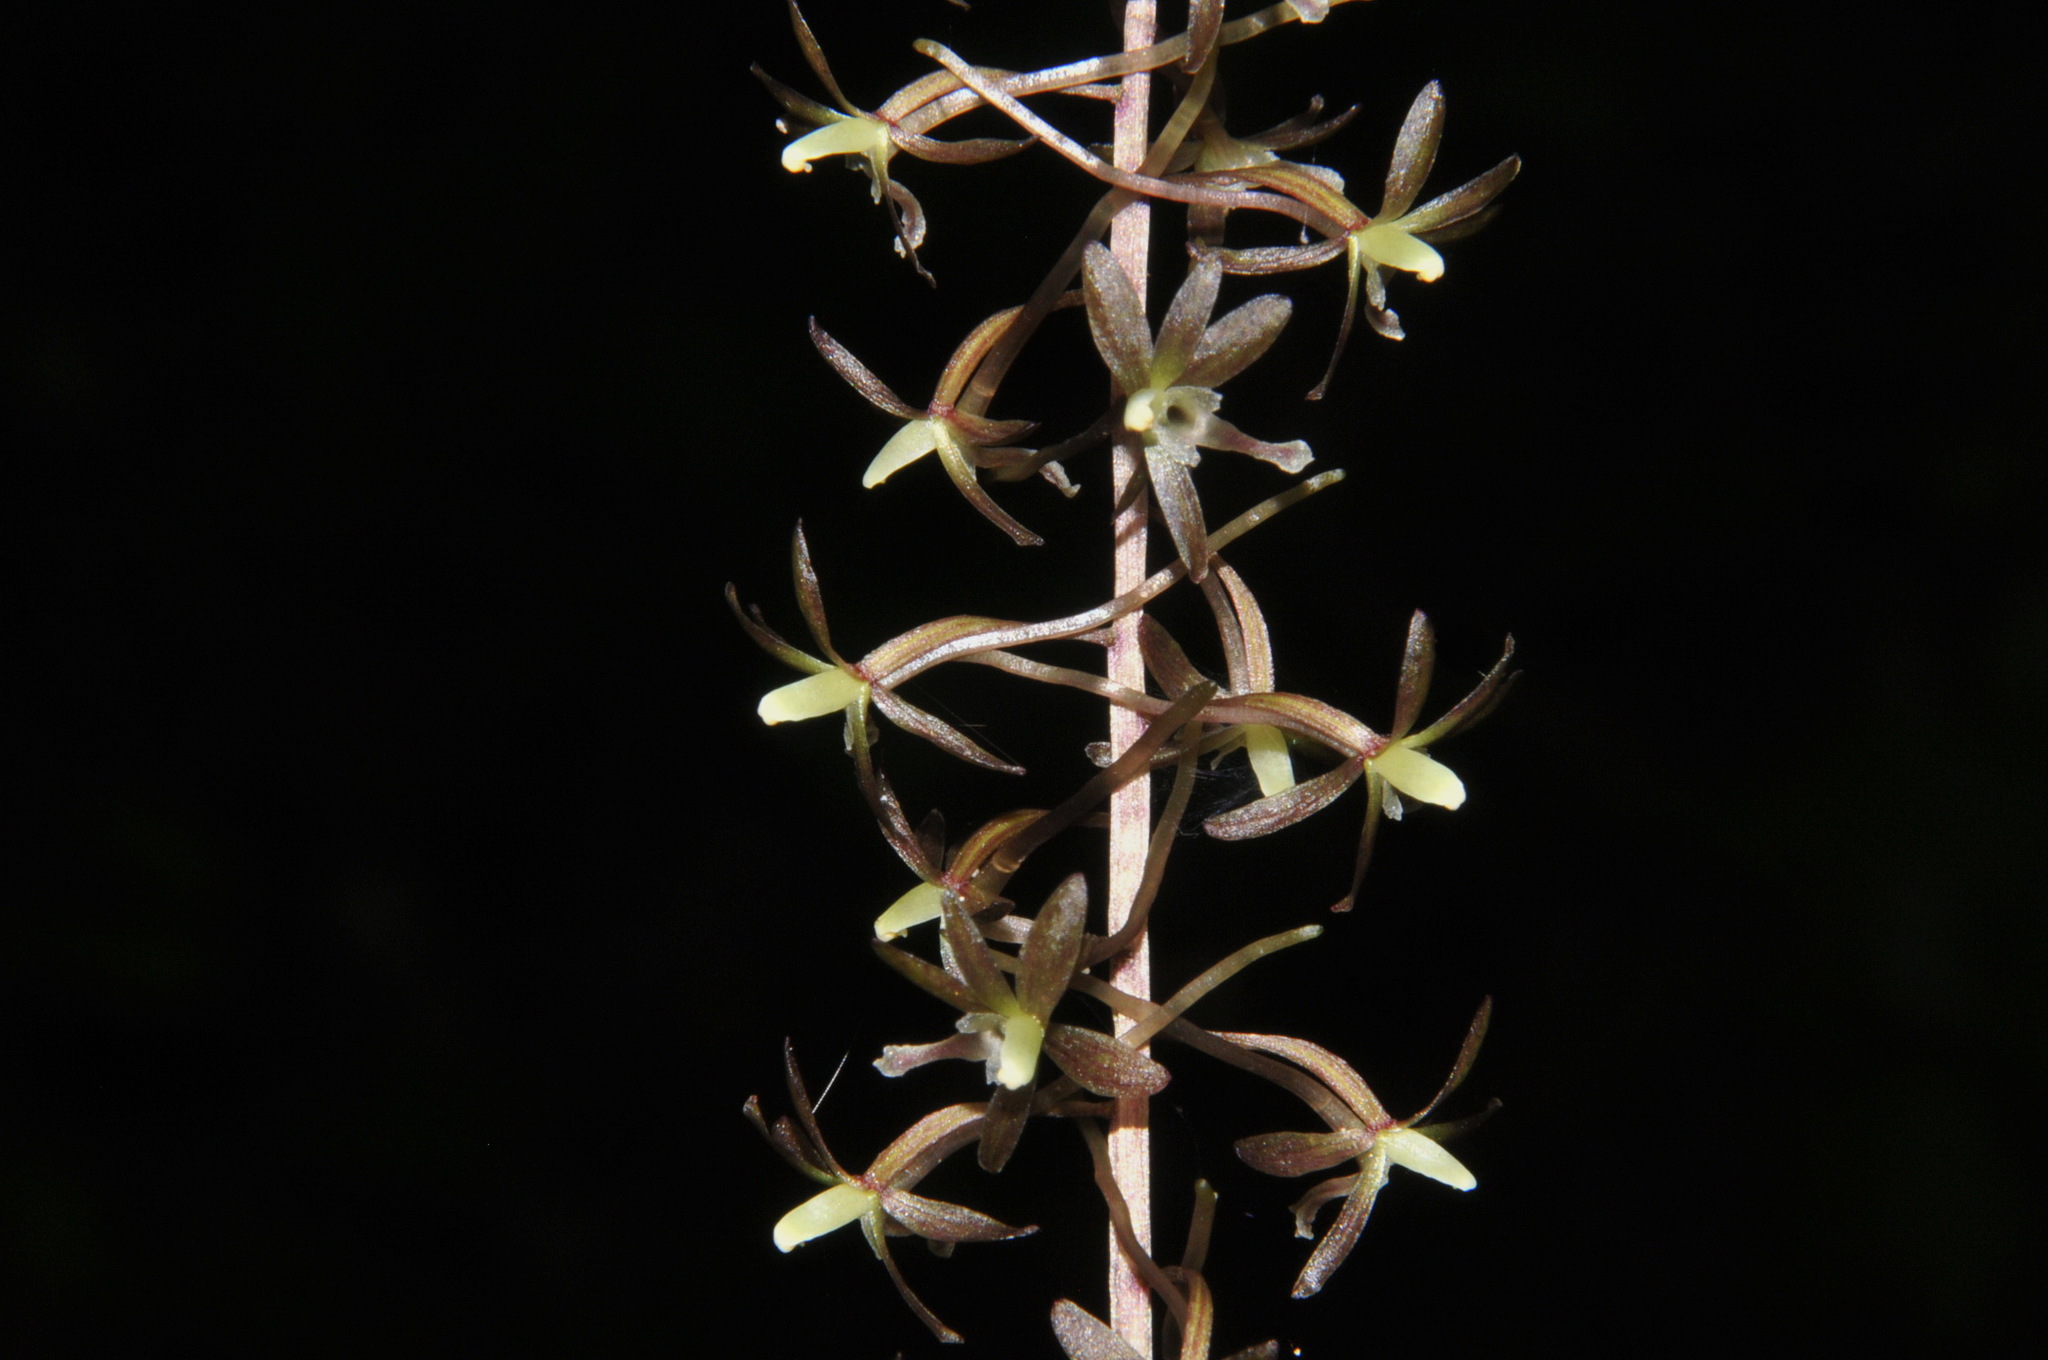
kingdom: Plantae
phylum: Tracheophyta
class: Liliopsida
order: Asparagales
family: Orchidaceae
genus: Tipularia
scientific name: Tipularia discolor
